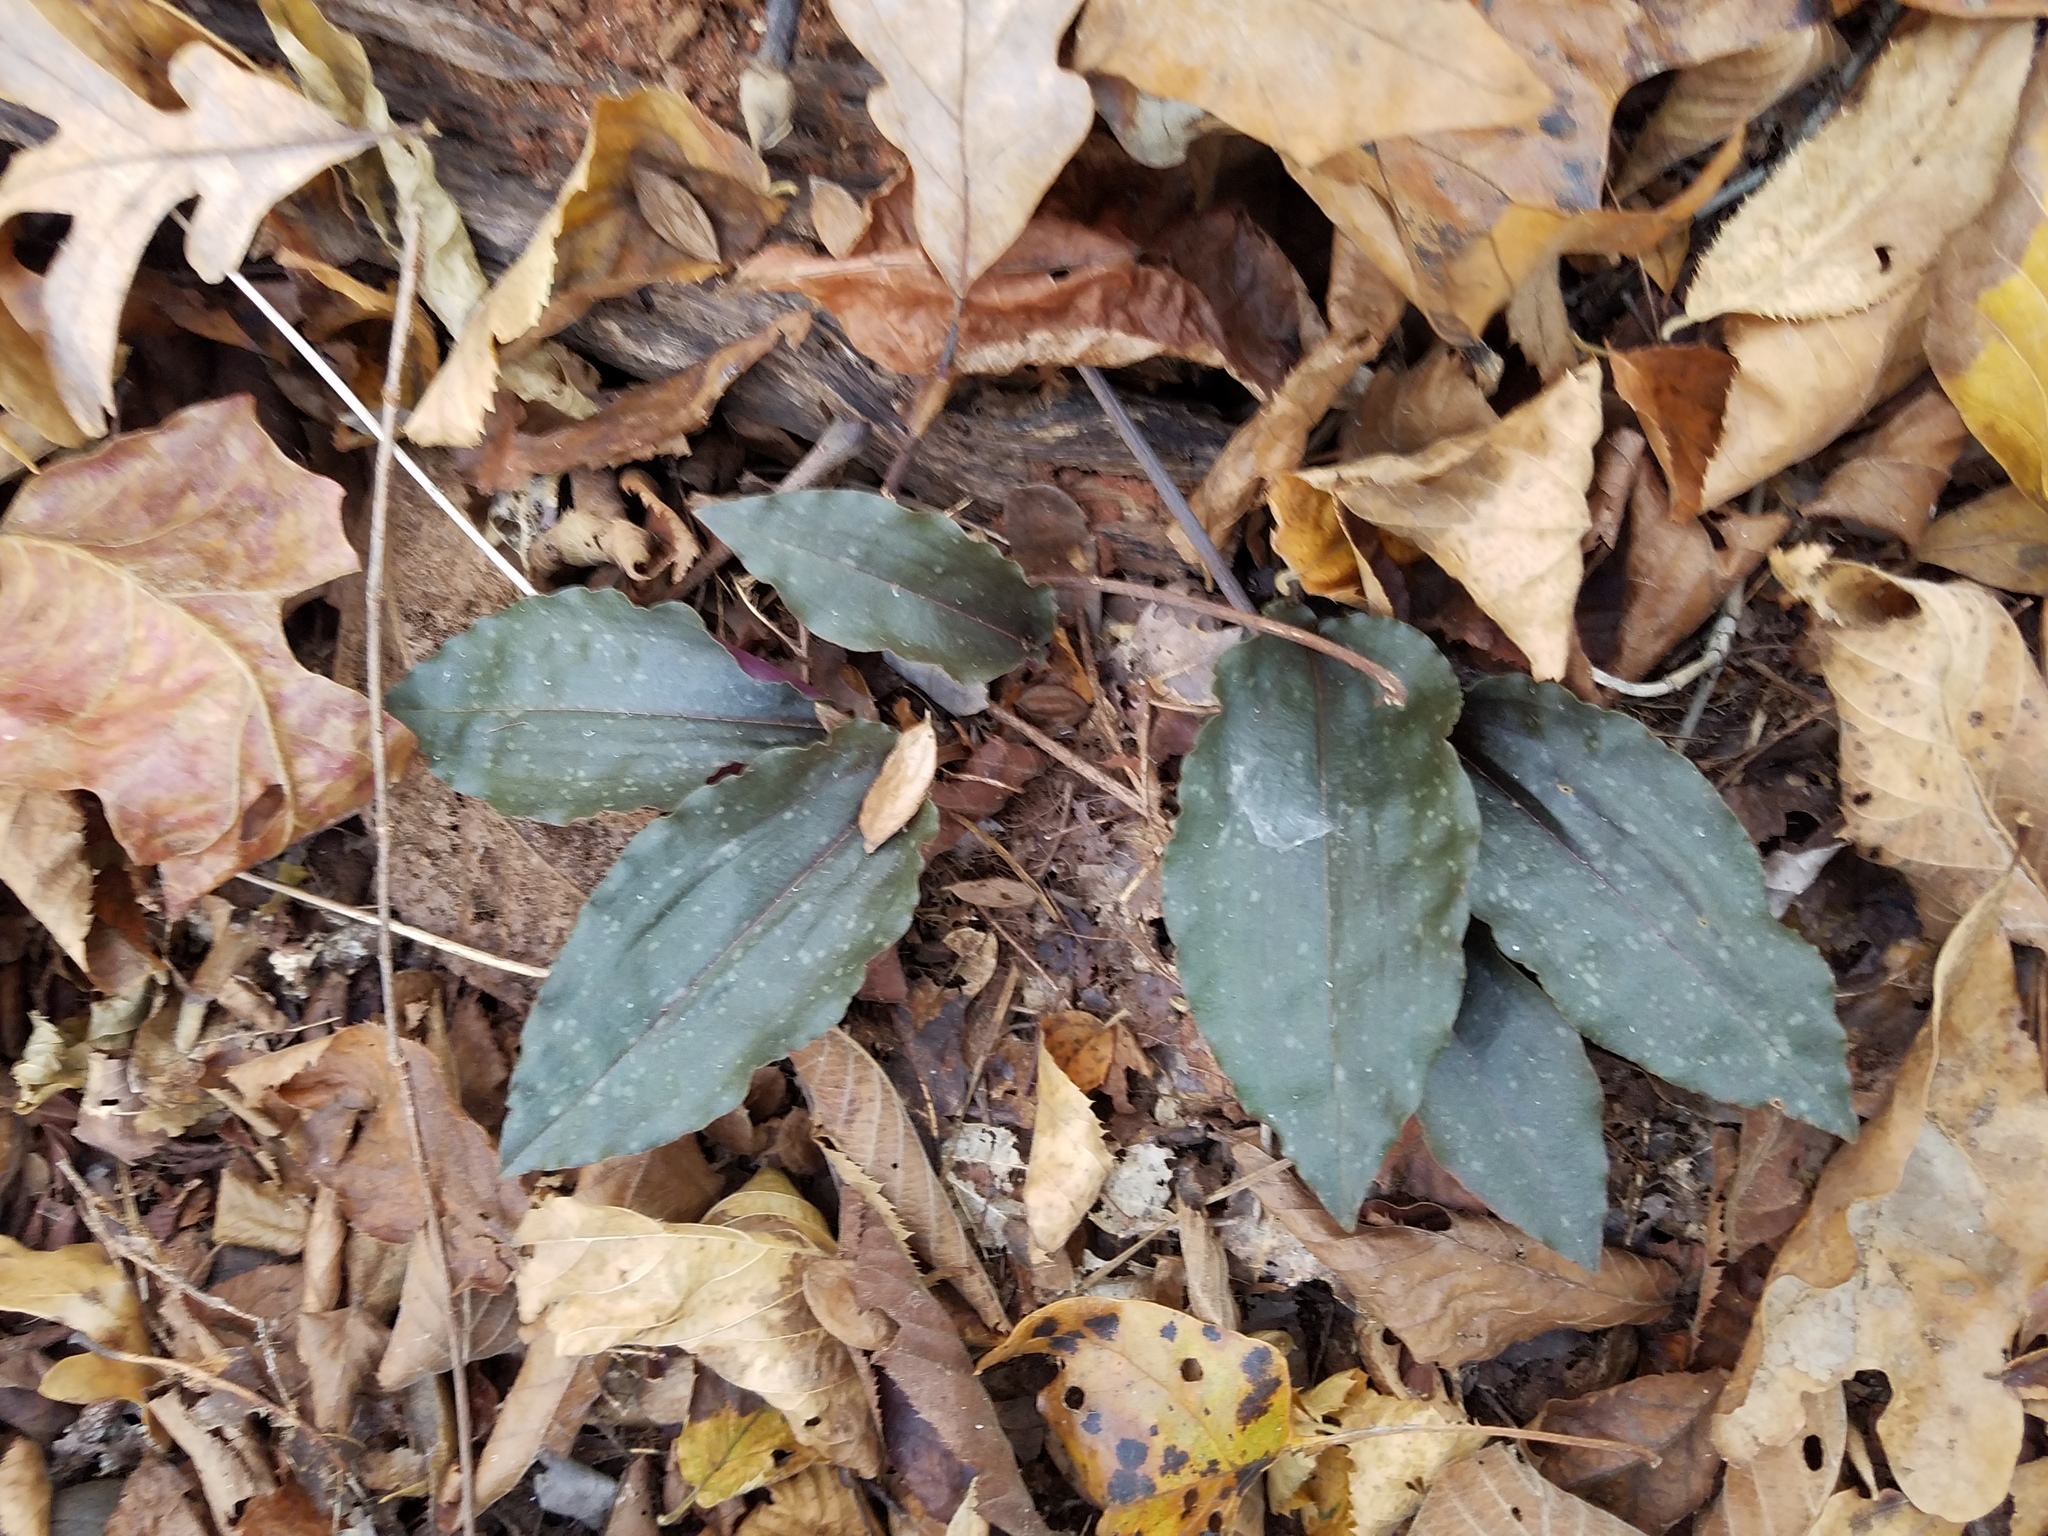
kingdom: Plantae
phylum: Tracheophyta
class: Liliopsida
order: Asparagales
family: Orchidaceae
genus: Tipularia
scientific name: Tipularia discolor
